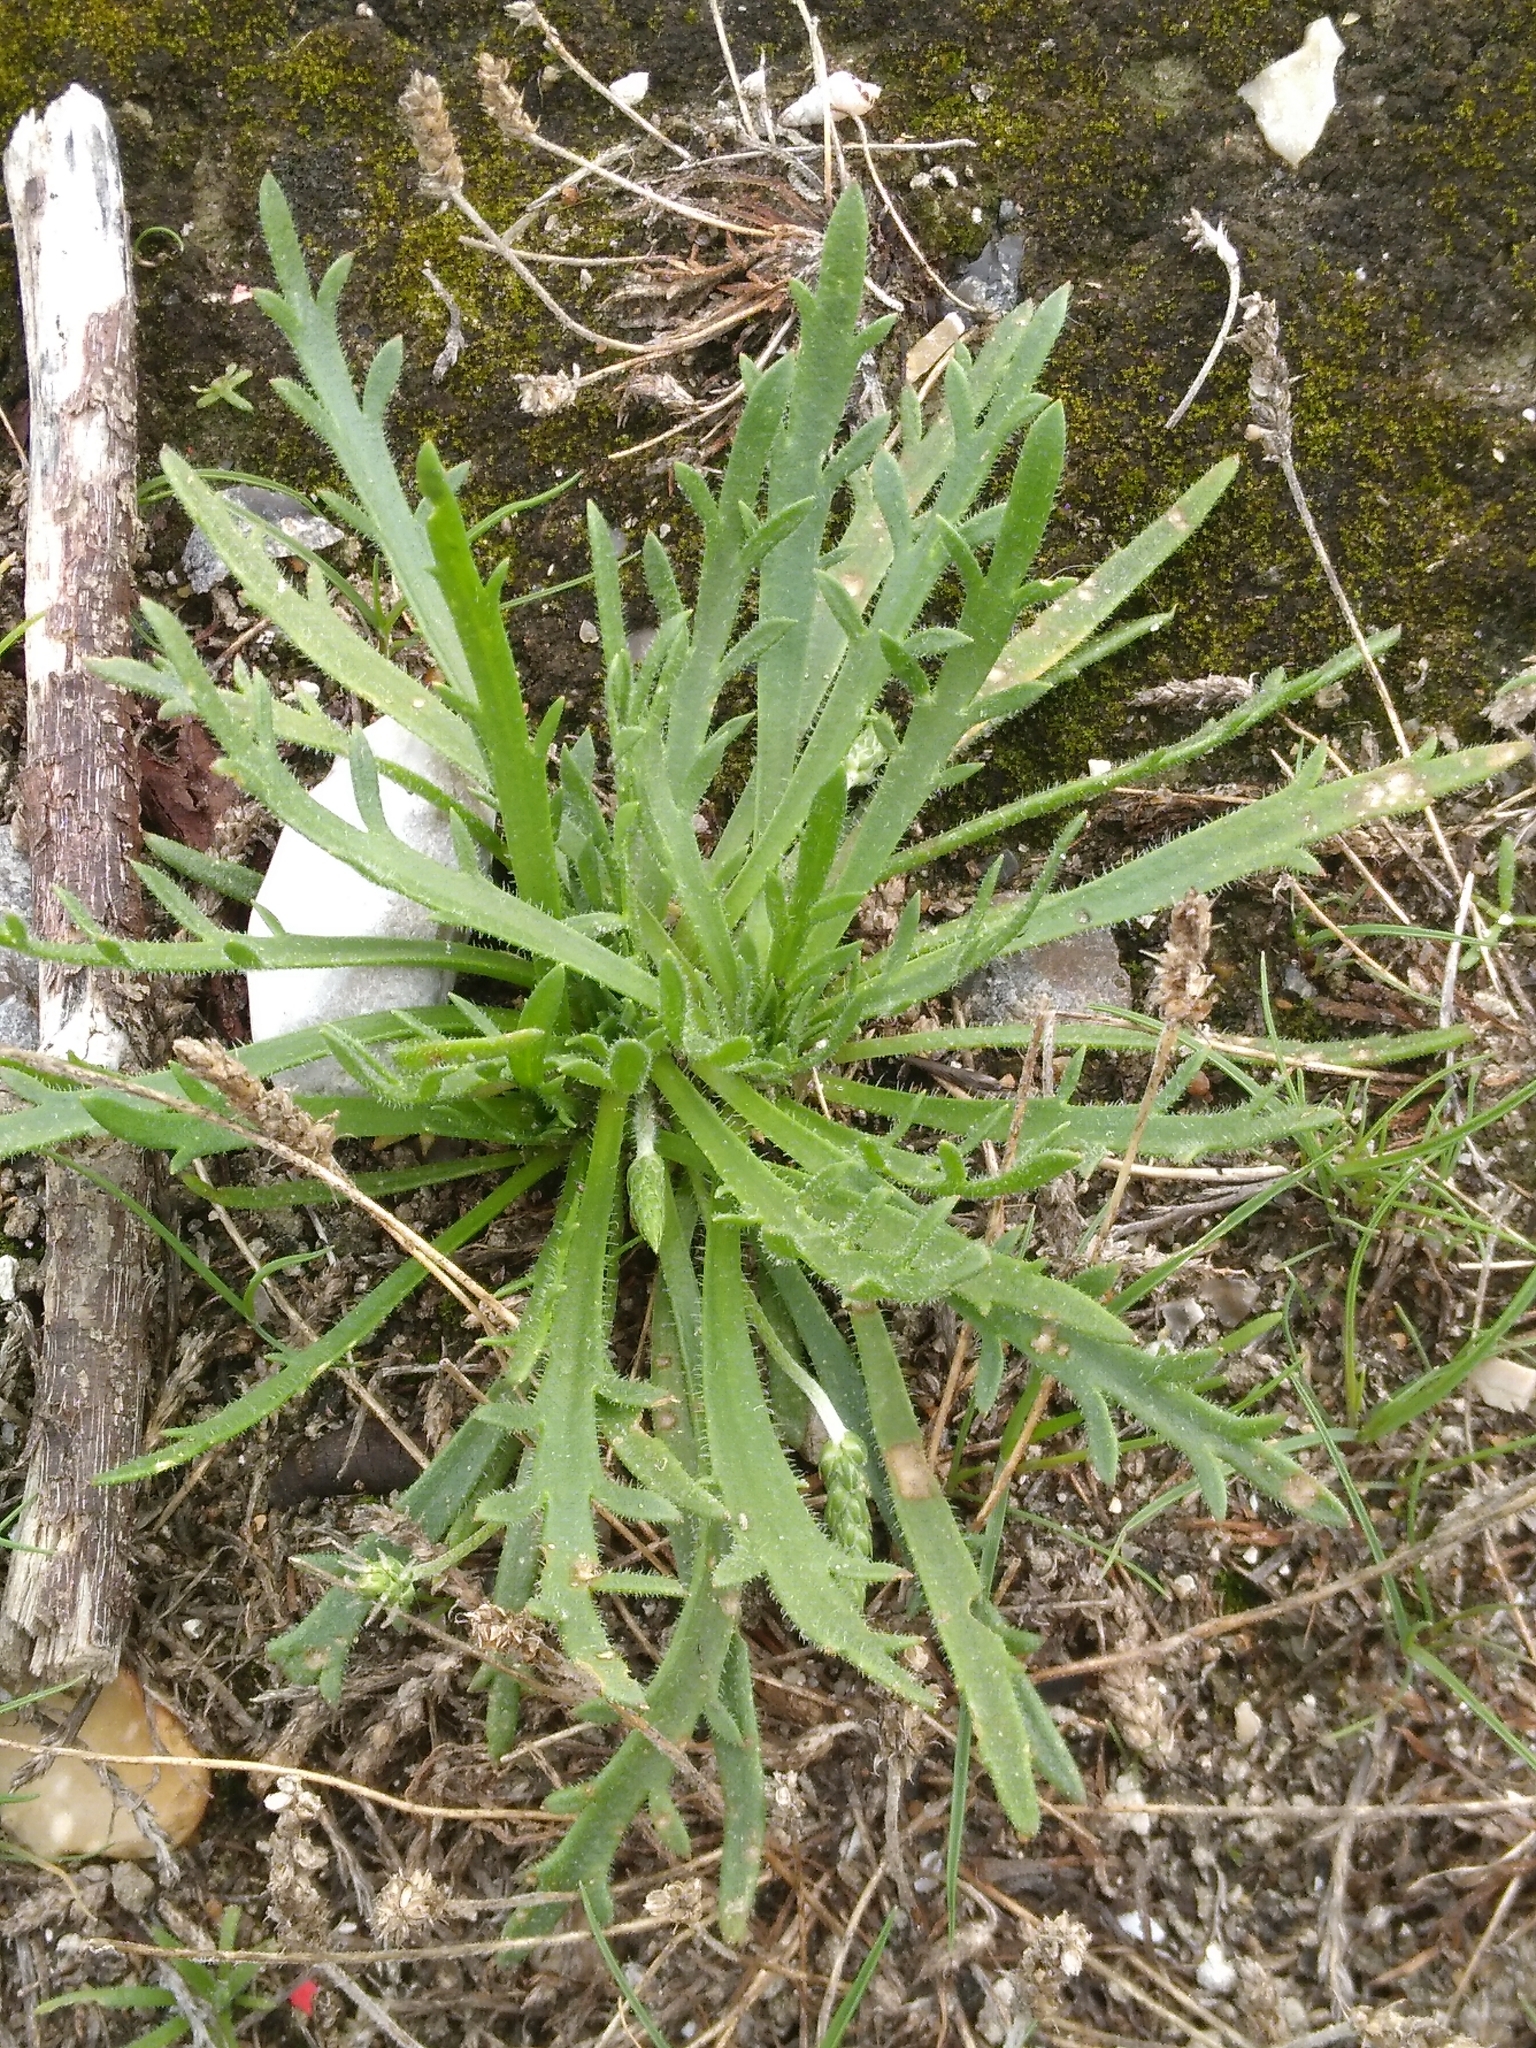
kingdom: Plantae
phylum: Tracheophyta
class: Magnoliopsida
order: Lamiales
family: Plantaginaceae
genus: Plantago
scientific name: Plantago coronopus
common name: Buck's-horn plantain
